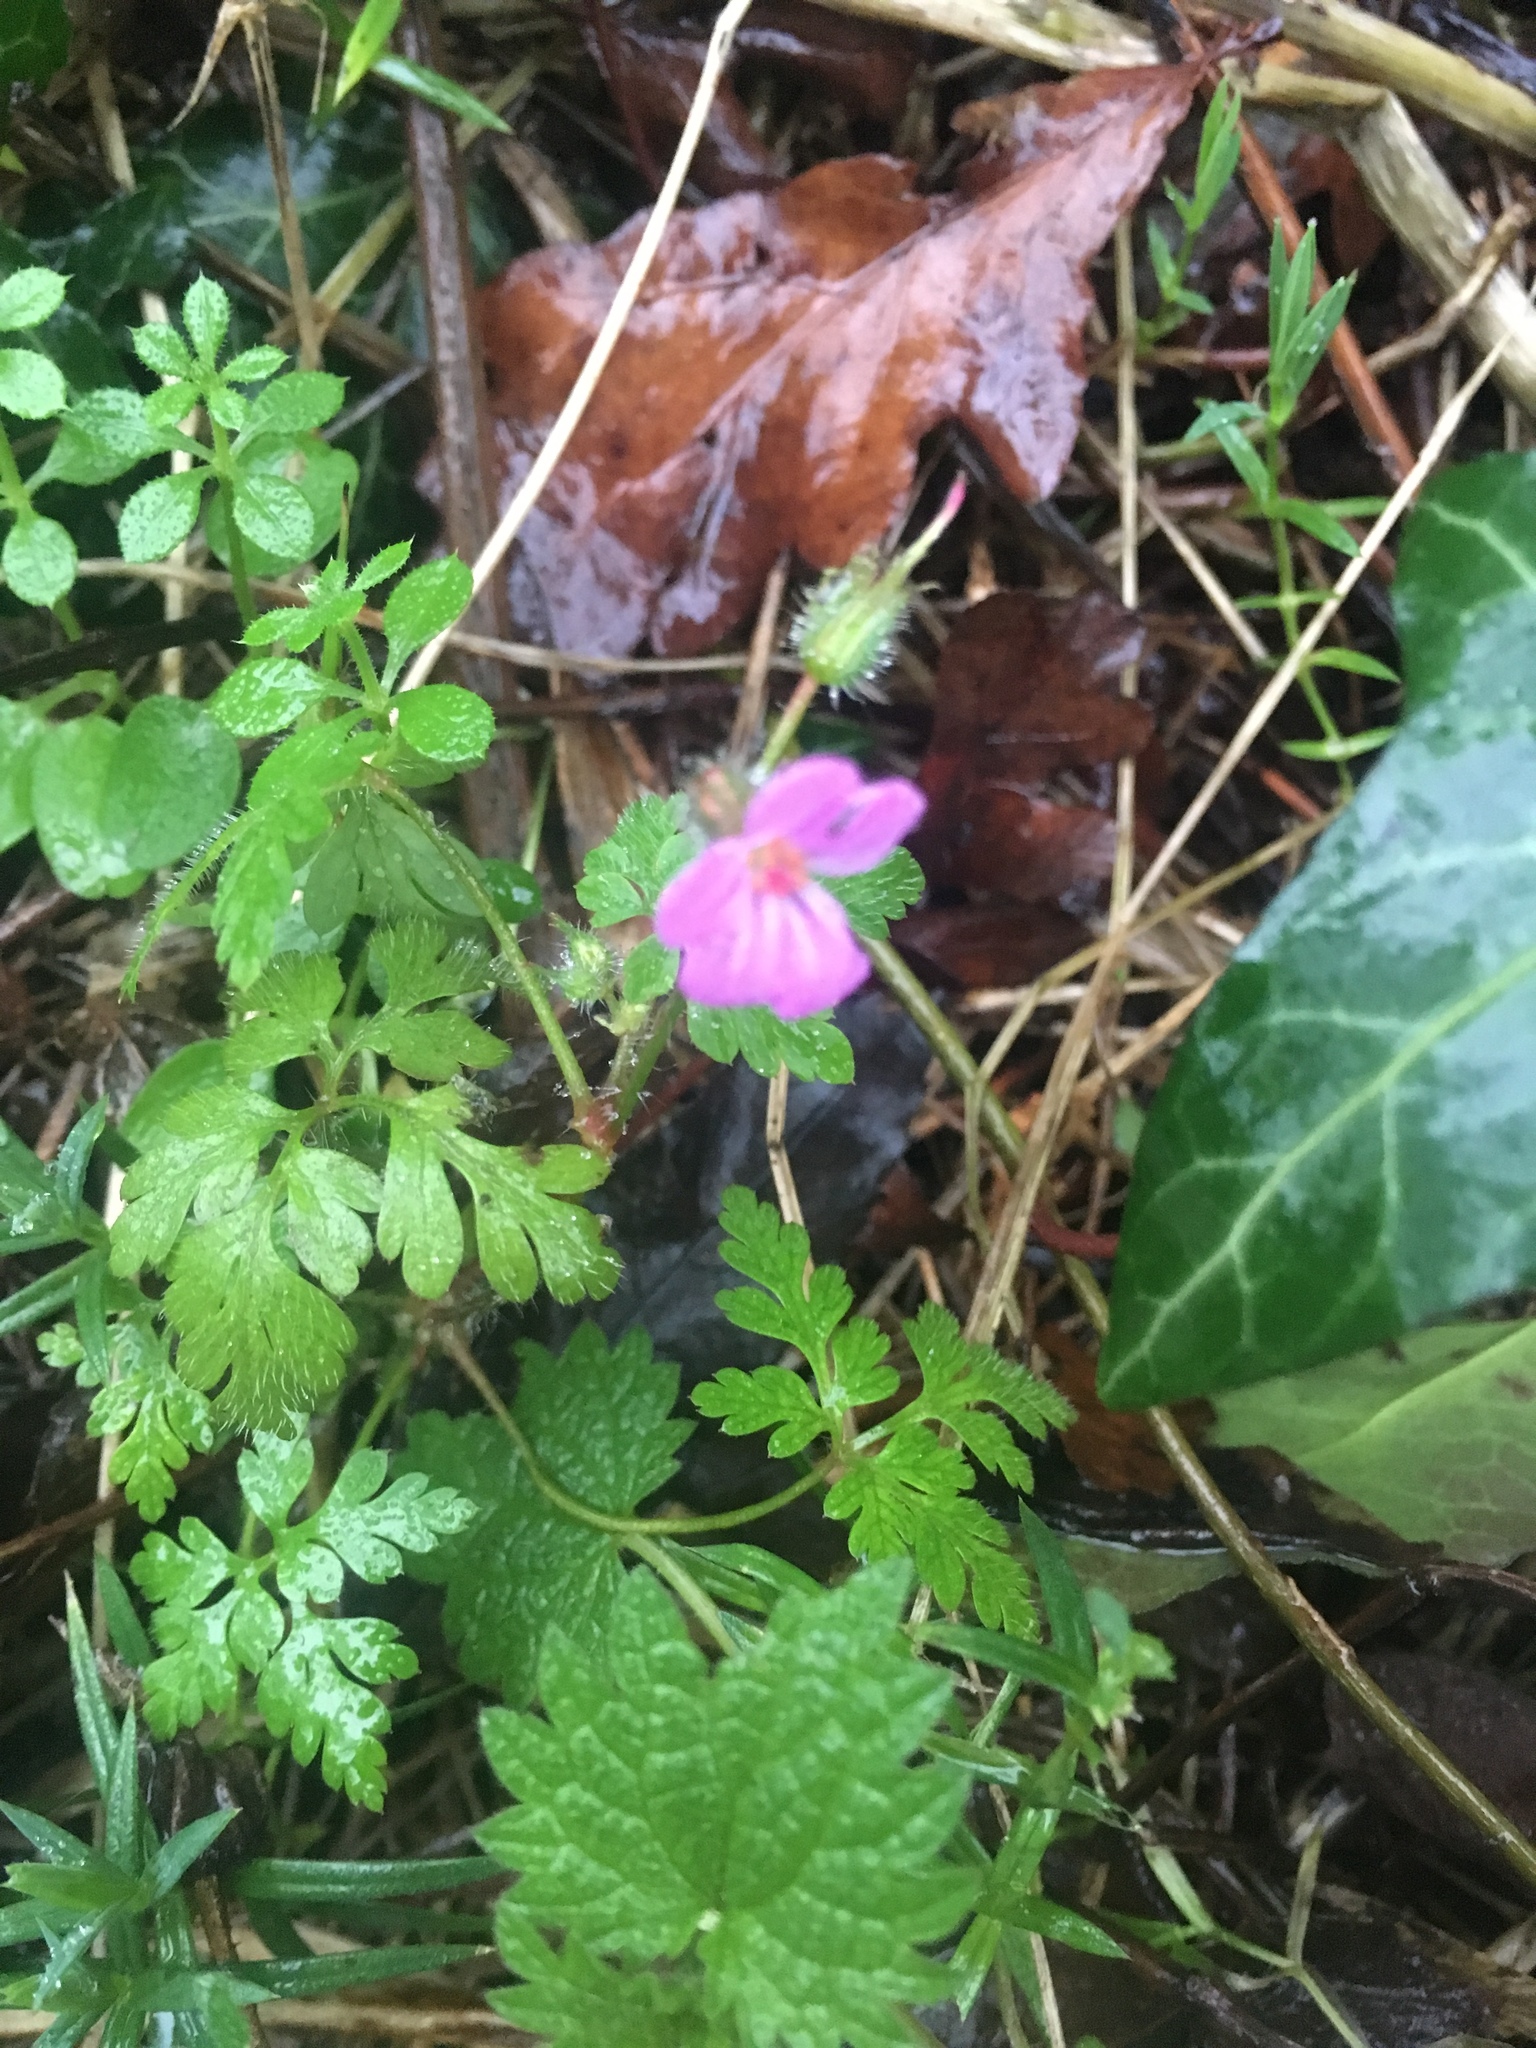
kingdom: Plantae
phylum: Tracheophyta
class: Magnoliopsida
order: Geraniales
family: Geraniaceae
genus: Geranium
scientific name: Geranium robertianum
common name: Herb-robert
